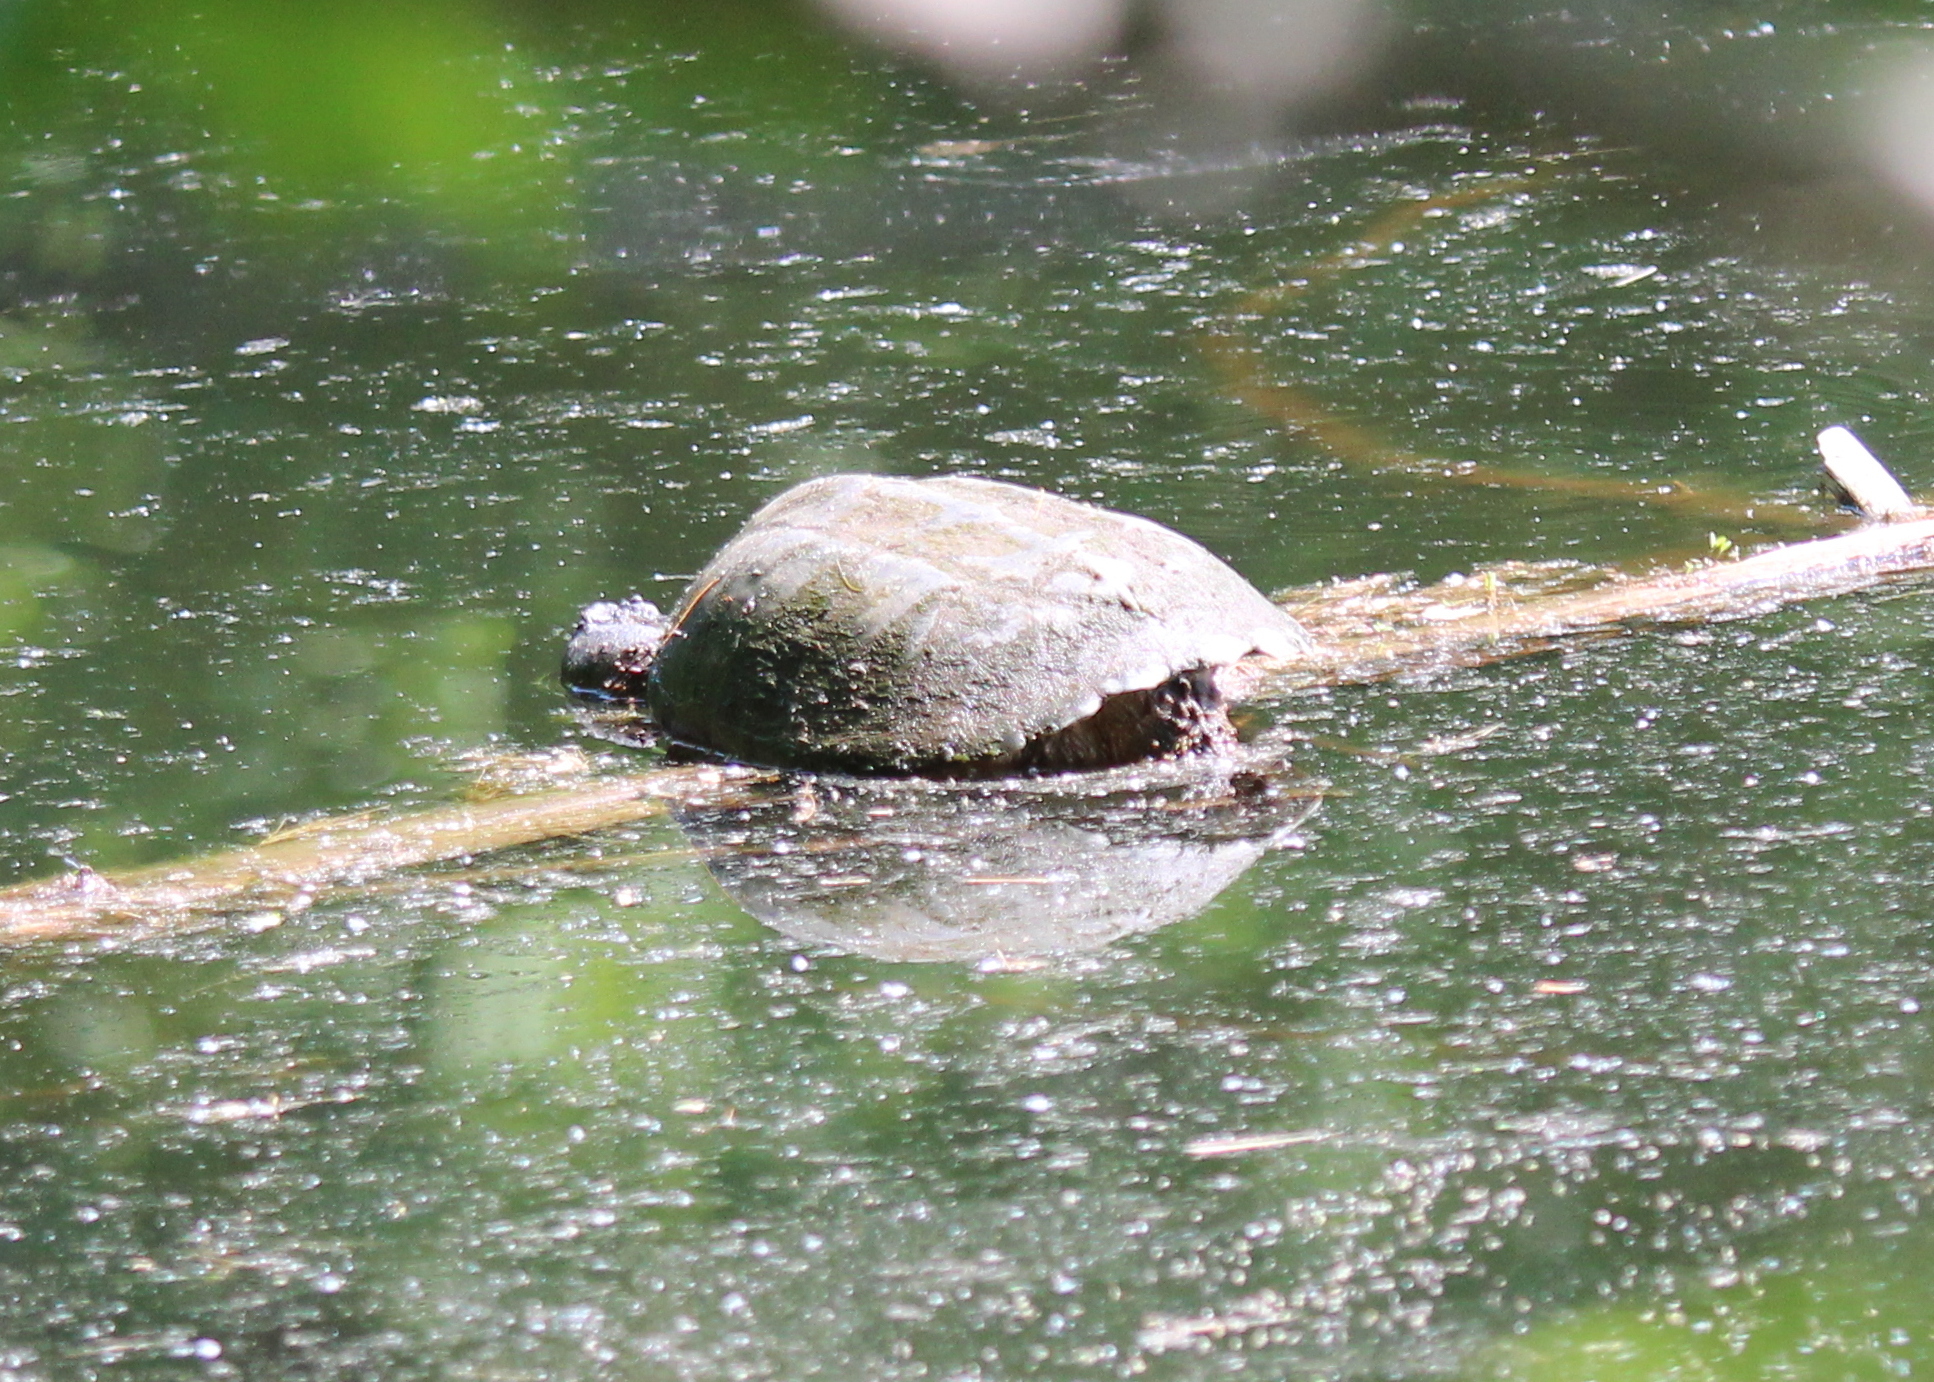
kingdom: Animalia
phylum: Chordata
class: Testudines
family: Chelydridae
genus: Chelydra
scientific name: Chelydra serpentina
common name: Common snapping turtle
